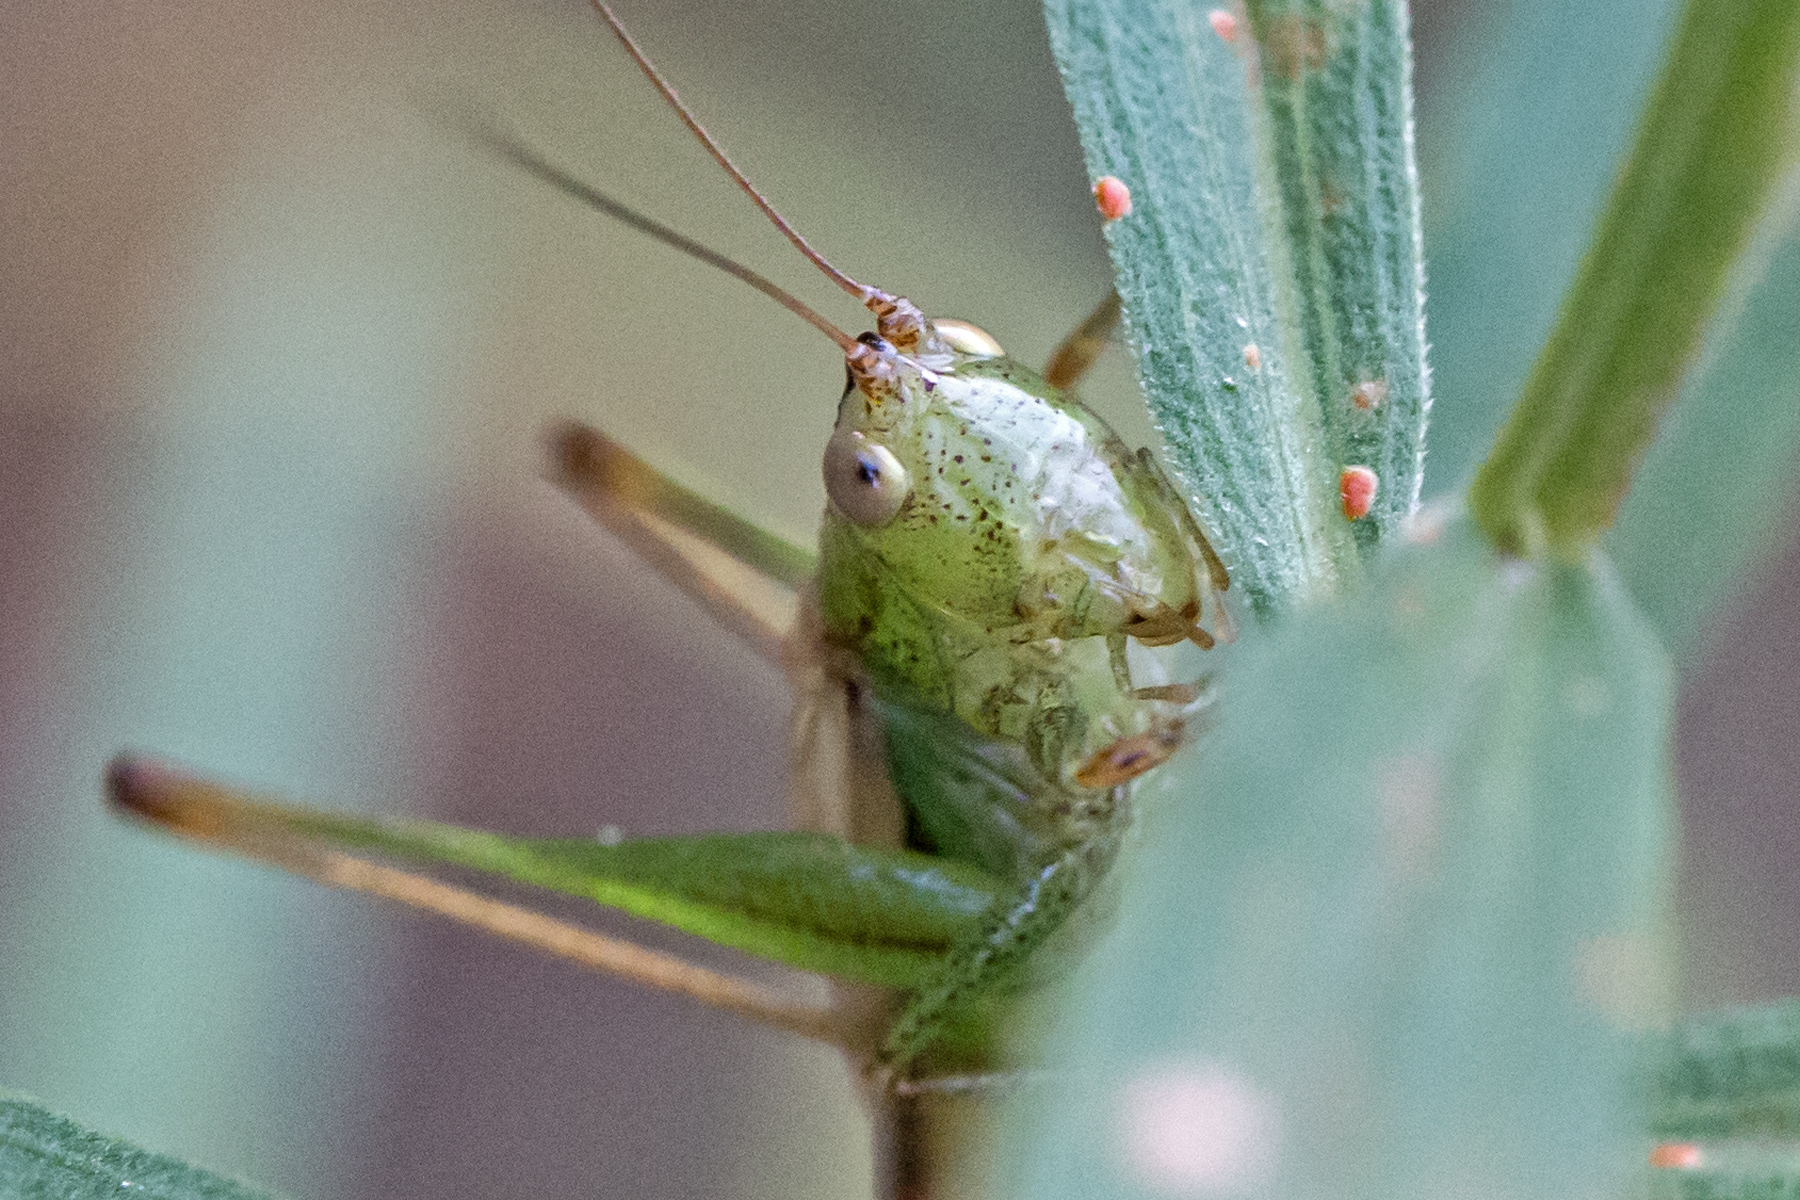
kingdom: Animalia
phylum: Arthropoda
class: Insecta
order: Orthoptera
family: Tettigoniidae
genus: Conocephalus
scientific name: Conocephalus brevipennis
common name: Short-winged meadow katydid
